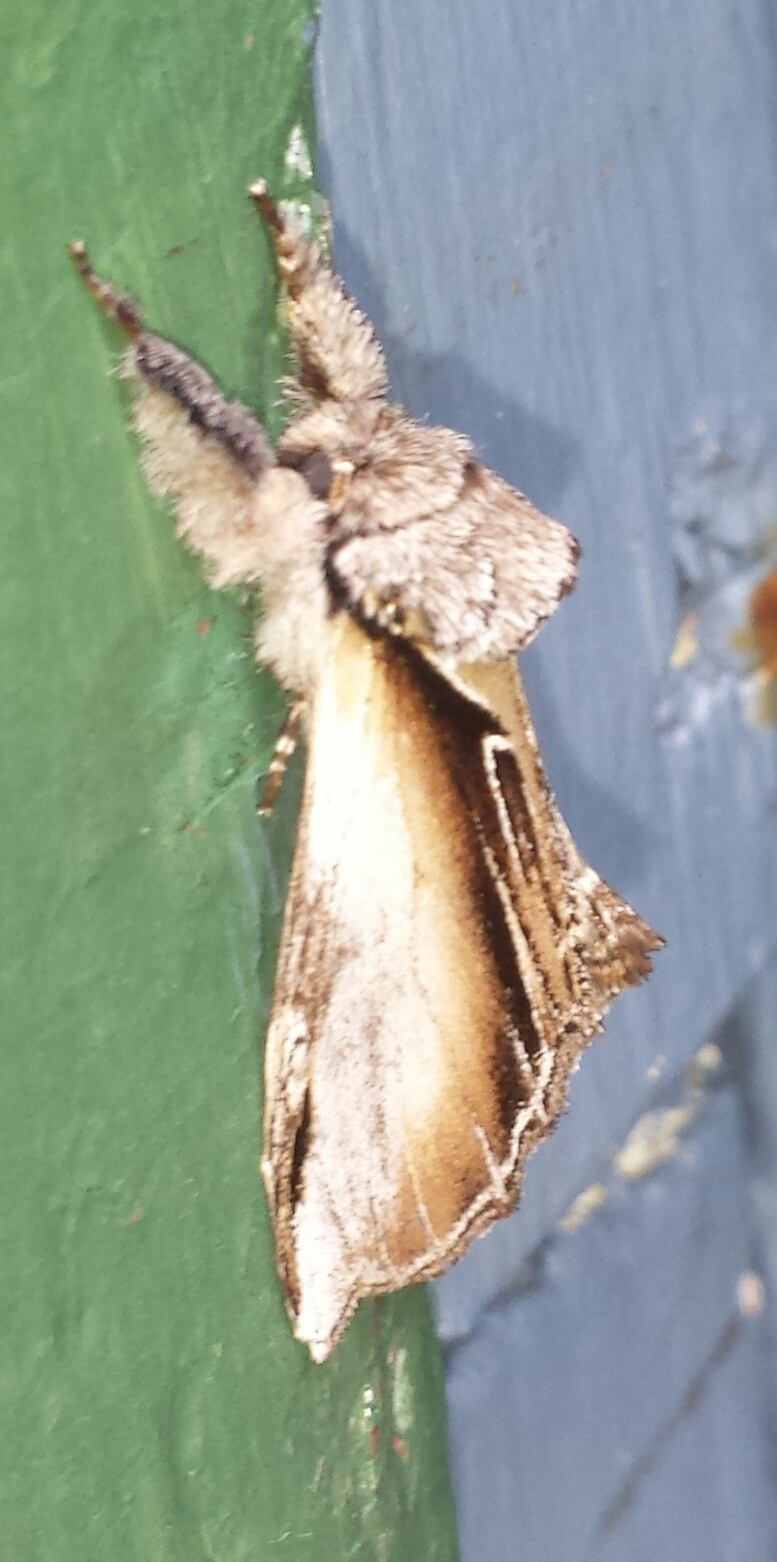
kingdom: Animalia
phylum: Arthropoda
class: Insecta
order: Lepidoptera
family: Notodontidae
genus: Pheosia
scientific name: Pheosia rimosa
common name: Black-rimmed prominent
